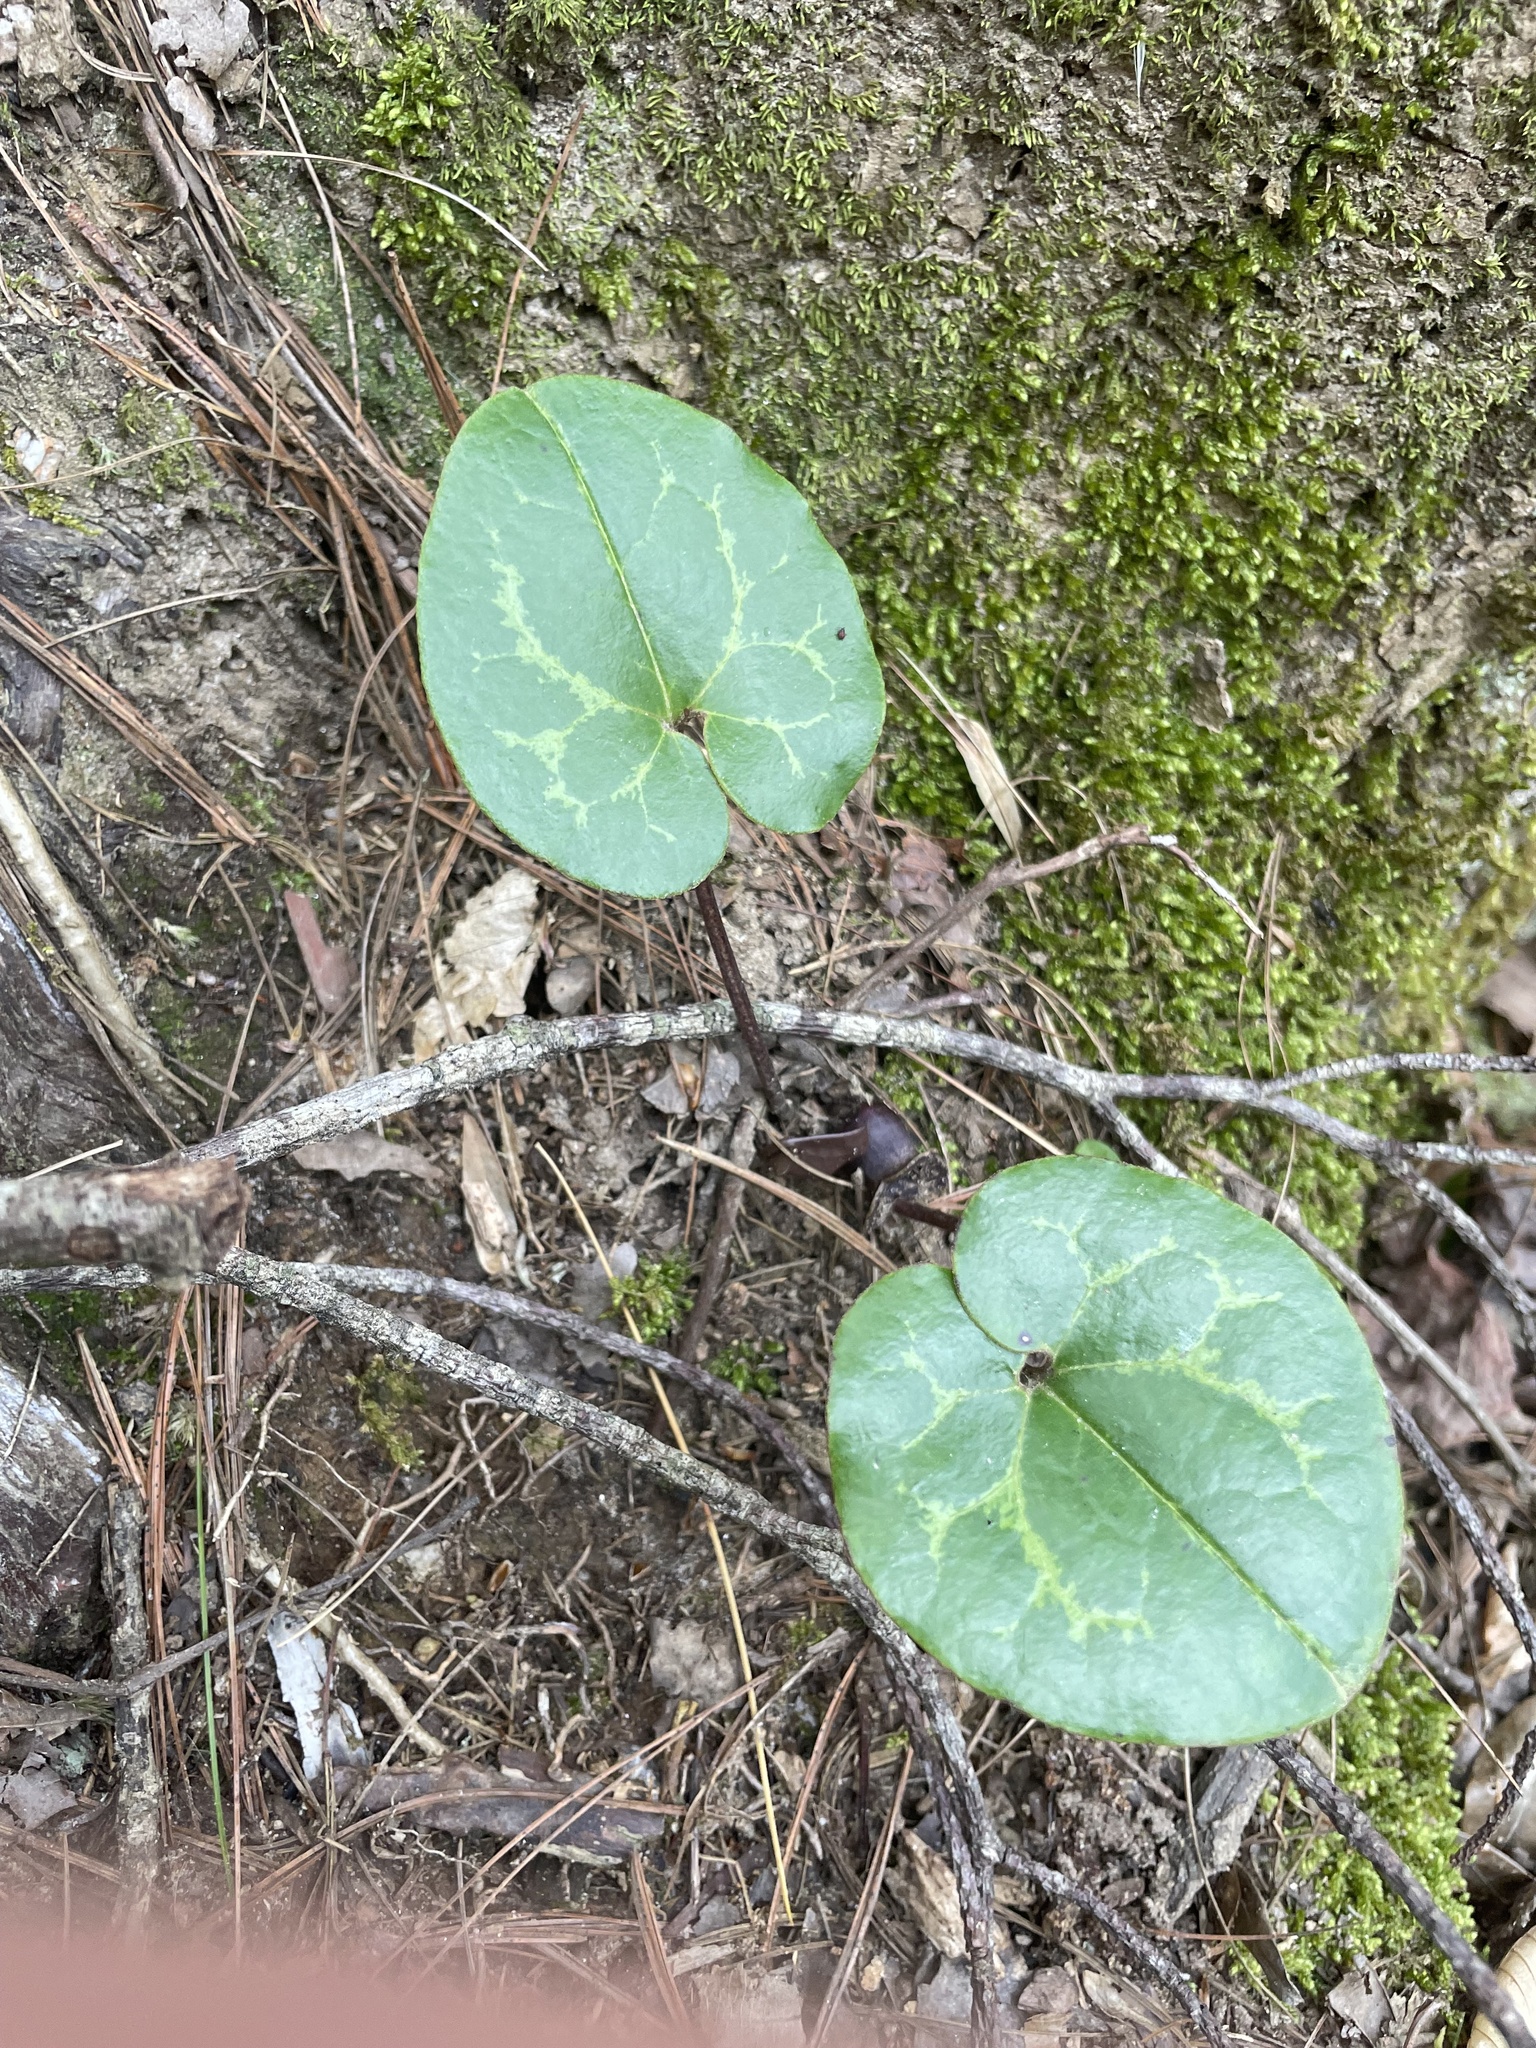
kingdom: Plantae
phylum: Tracheophyta
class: Magnoliopsida
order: Piperales
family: Aristolochiaceae
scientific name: Aristolochiaceae
